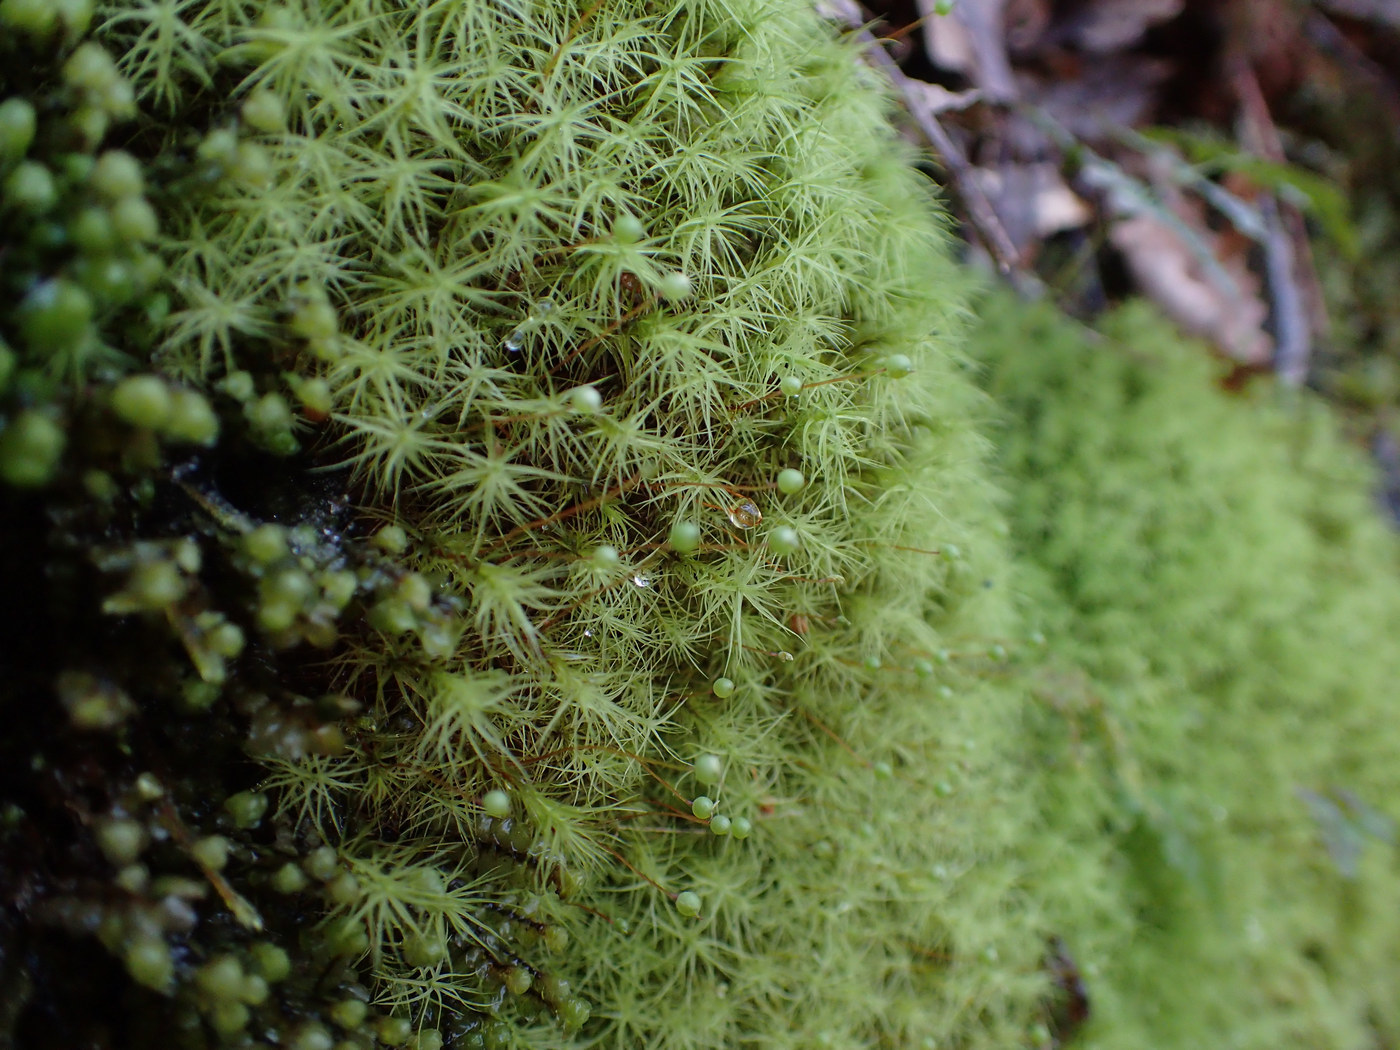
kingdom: Plantae
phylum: Bryophyta
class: Bryopsida
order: Bartramiales
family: Bartramiaceae
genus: Bartramia
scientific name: Bartramia ithyphylla
